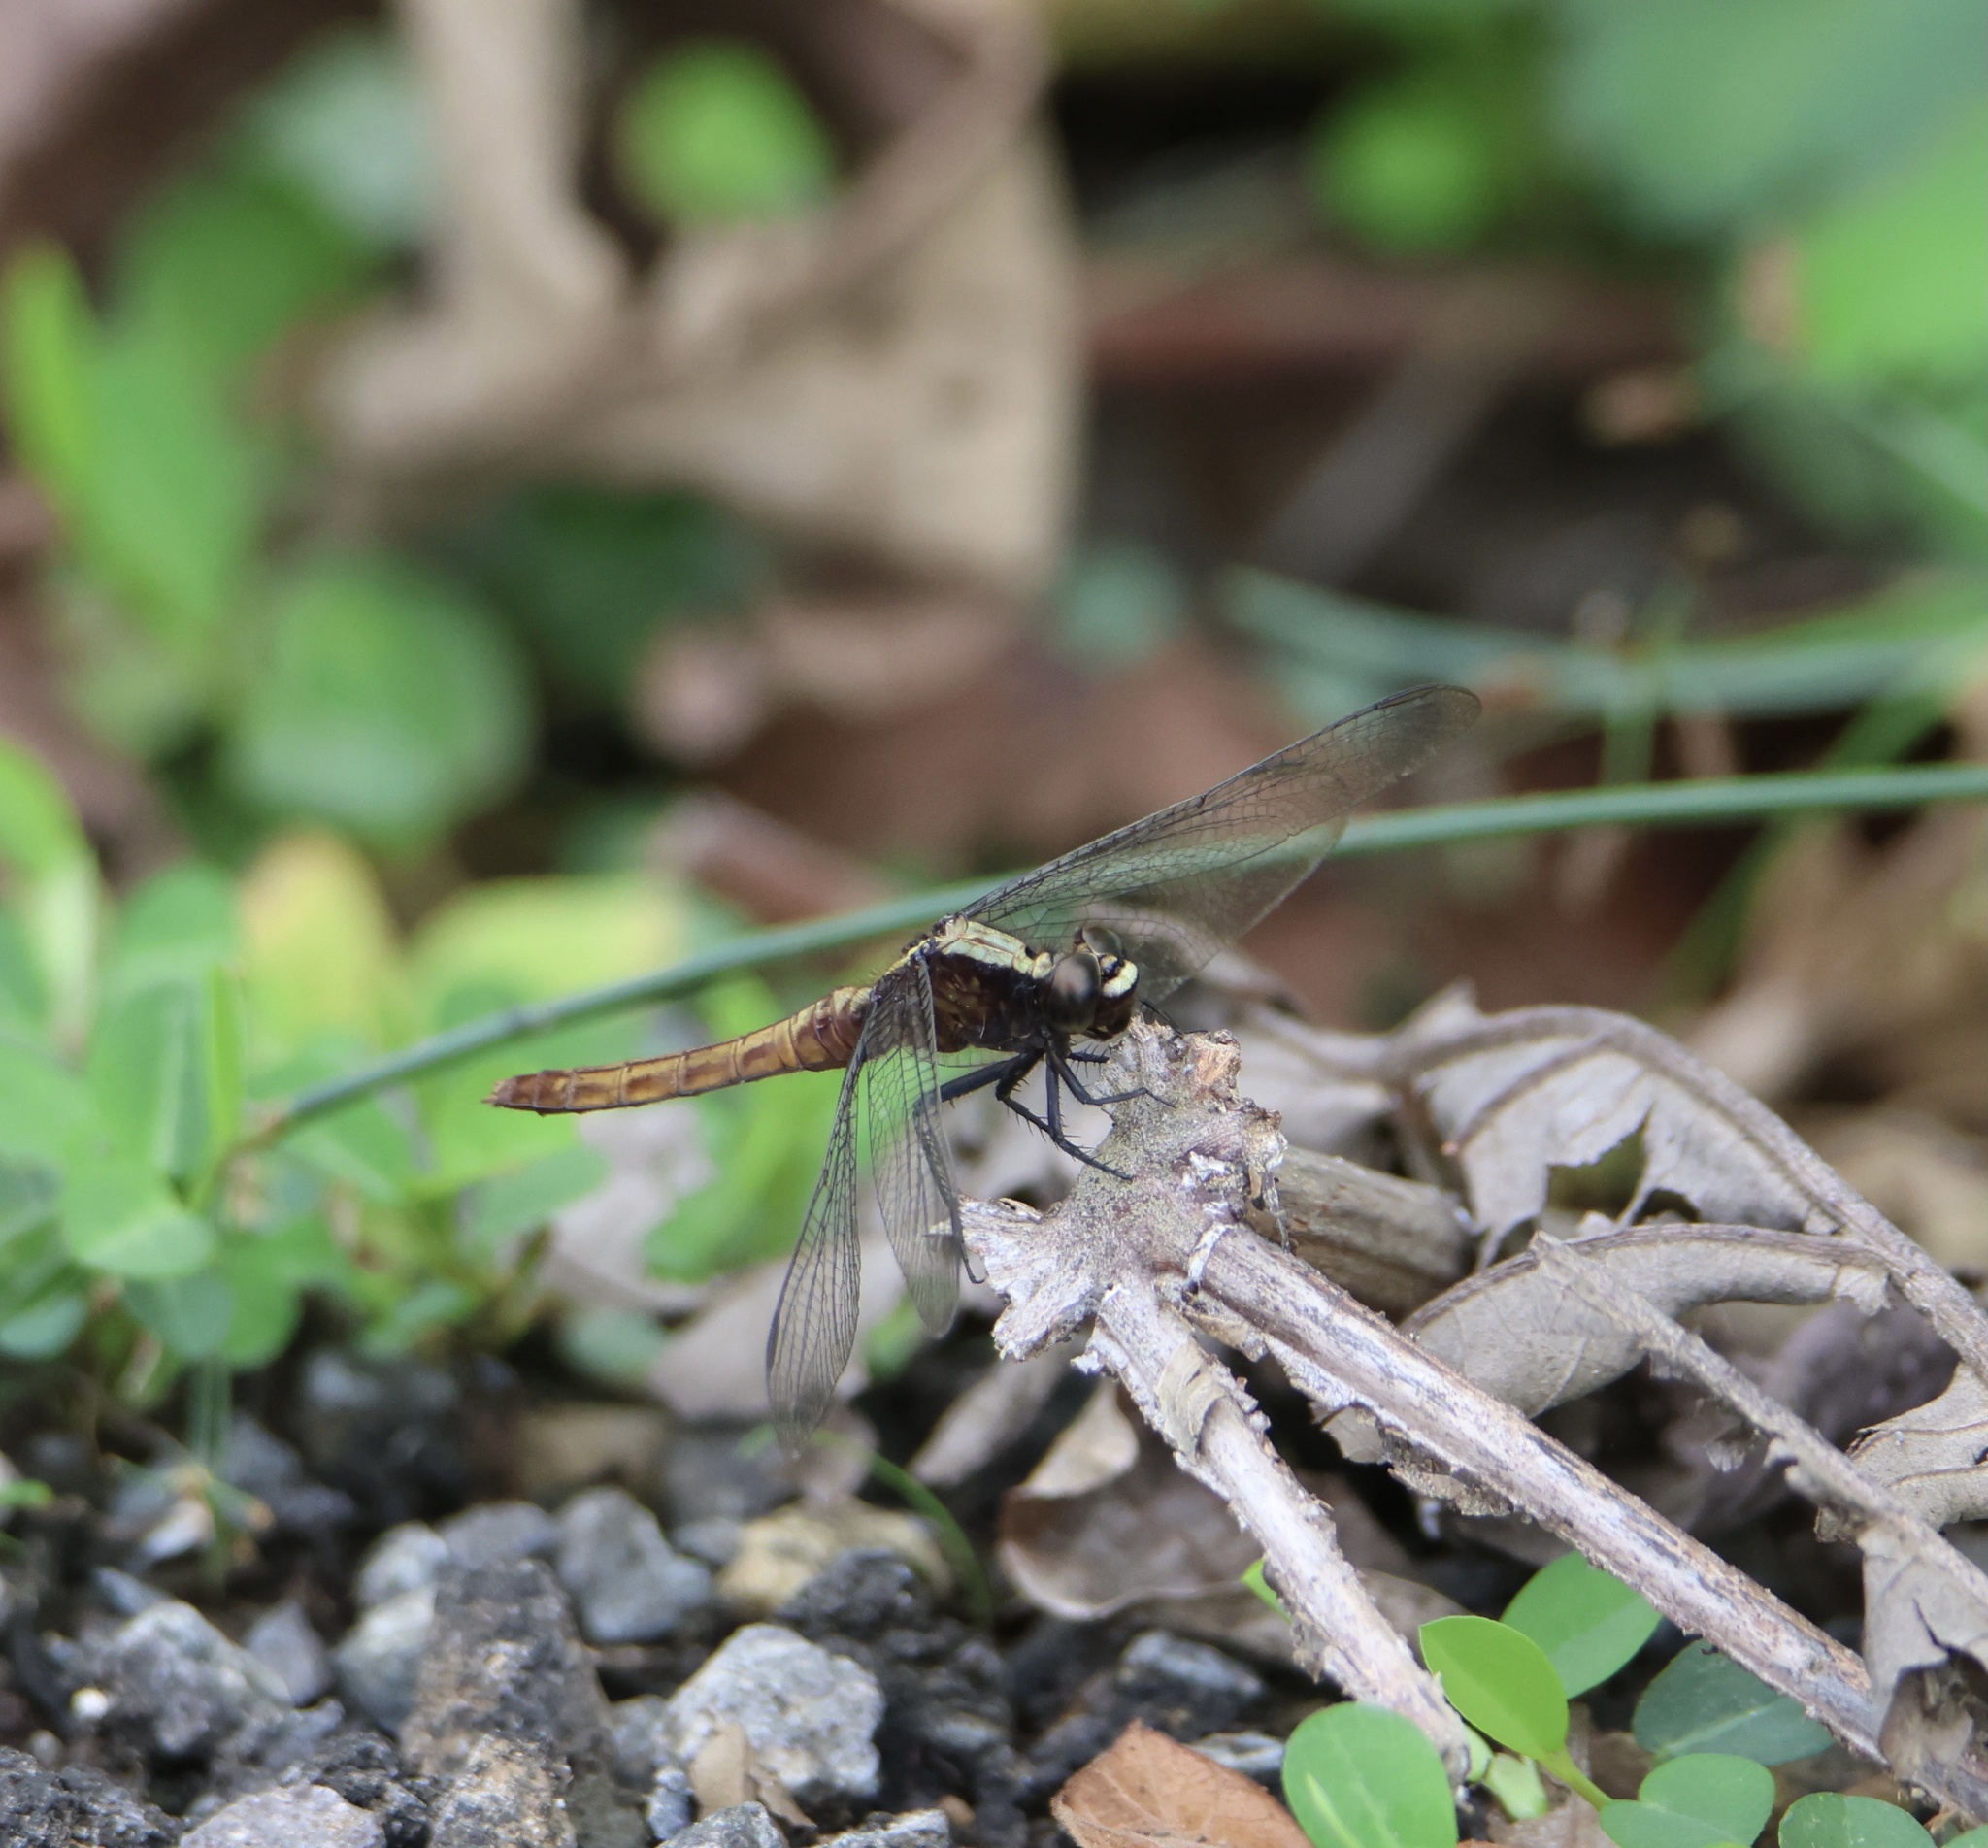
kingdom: Animalia
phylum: Arthropoda
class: Insecta
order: Odonata
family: Libellulidae
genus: Erythemis
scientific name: Erythemis peruviana
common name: Flame-tailed pondhawk
